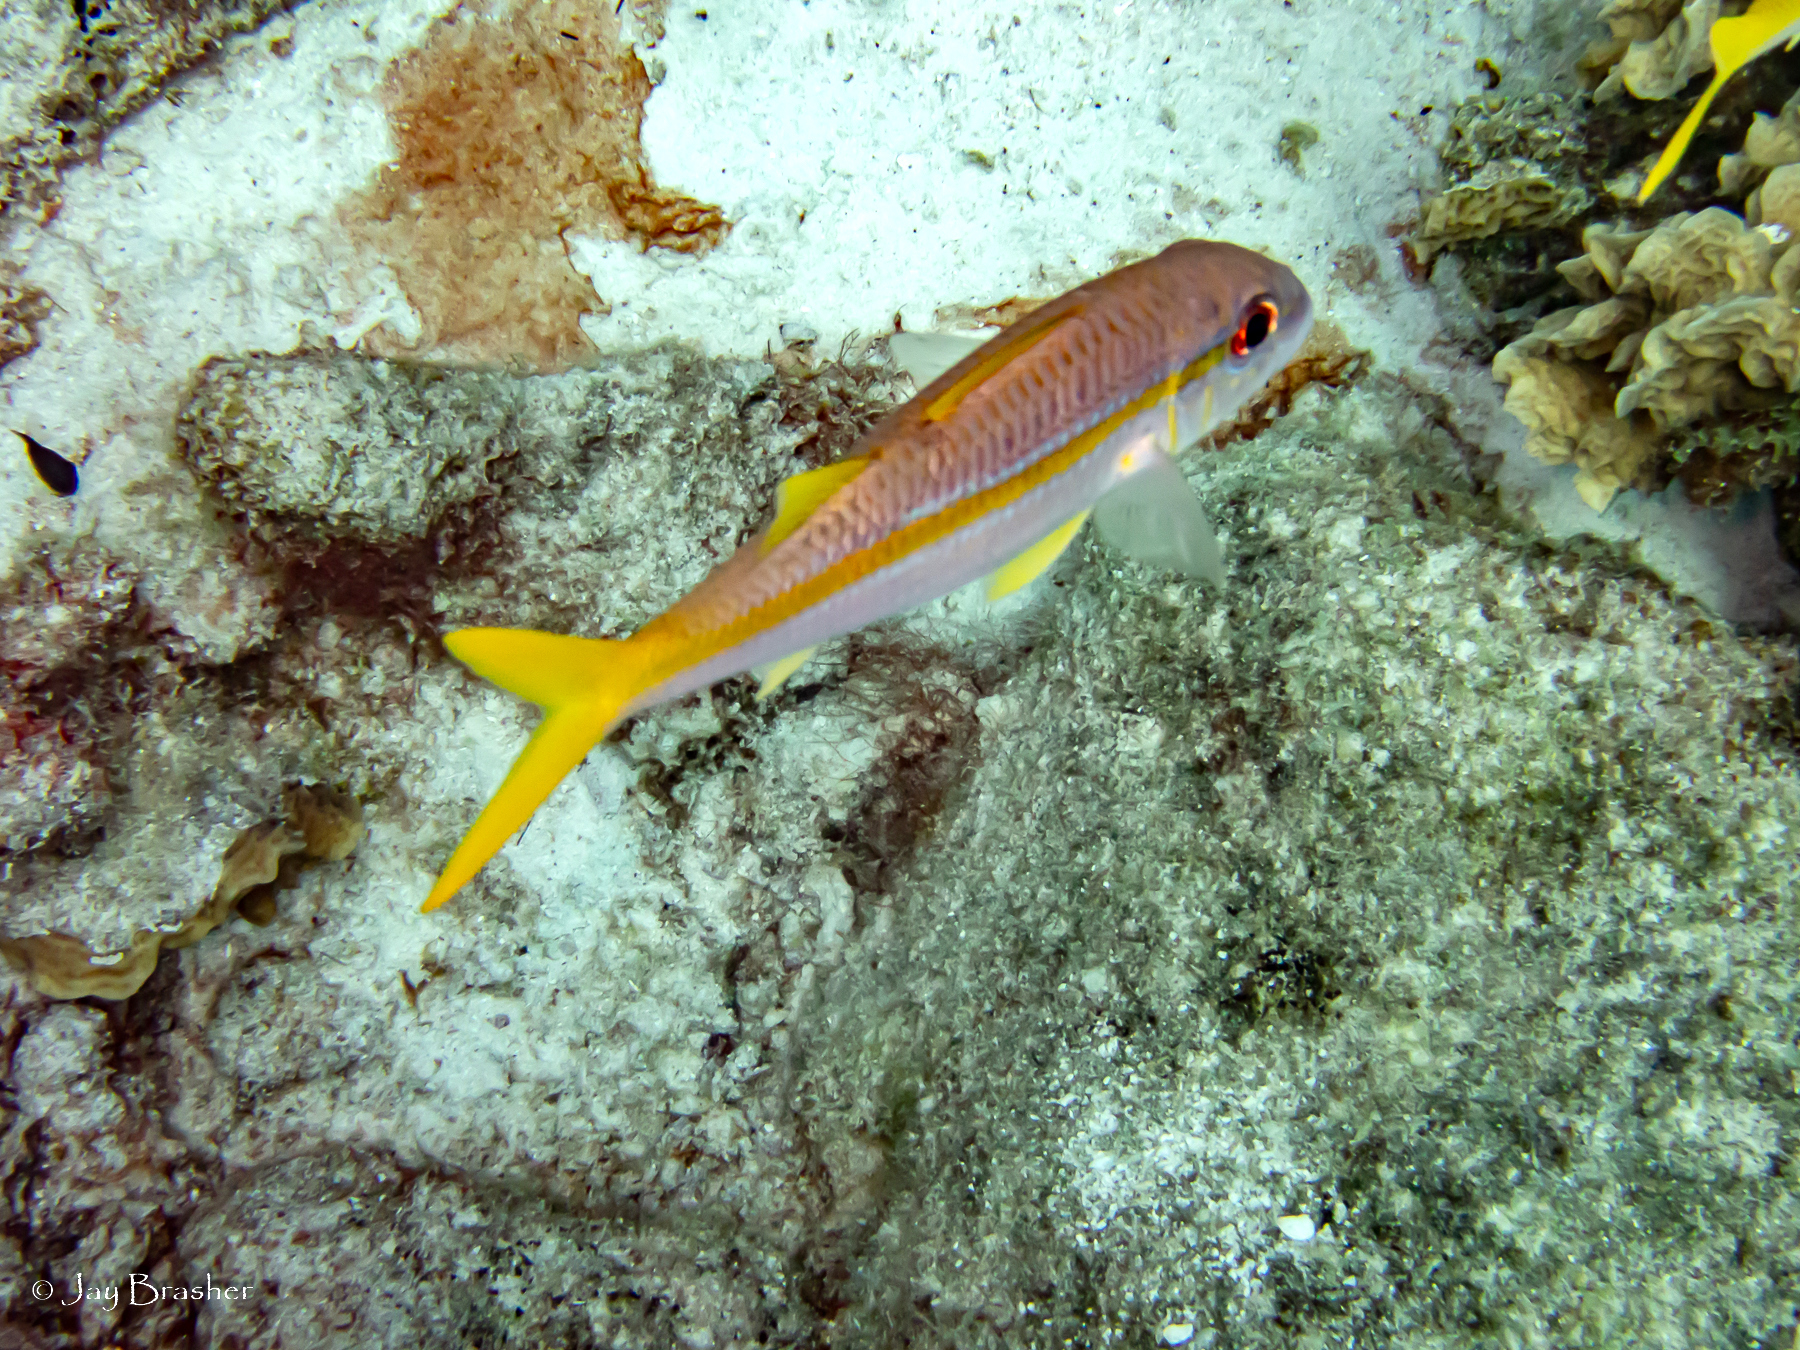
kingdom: Animalia
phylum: Chordata
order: Perciformes
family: Mullidae
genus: Mulloidichthys
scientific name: Mulloidichthys martinicus
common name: Yellow goatfish
